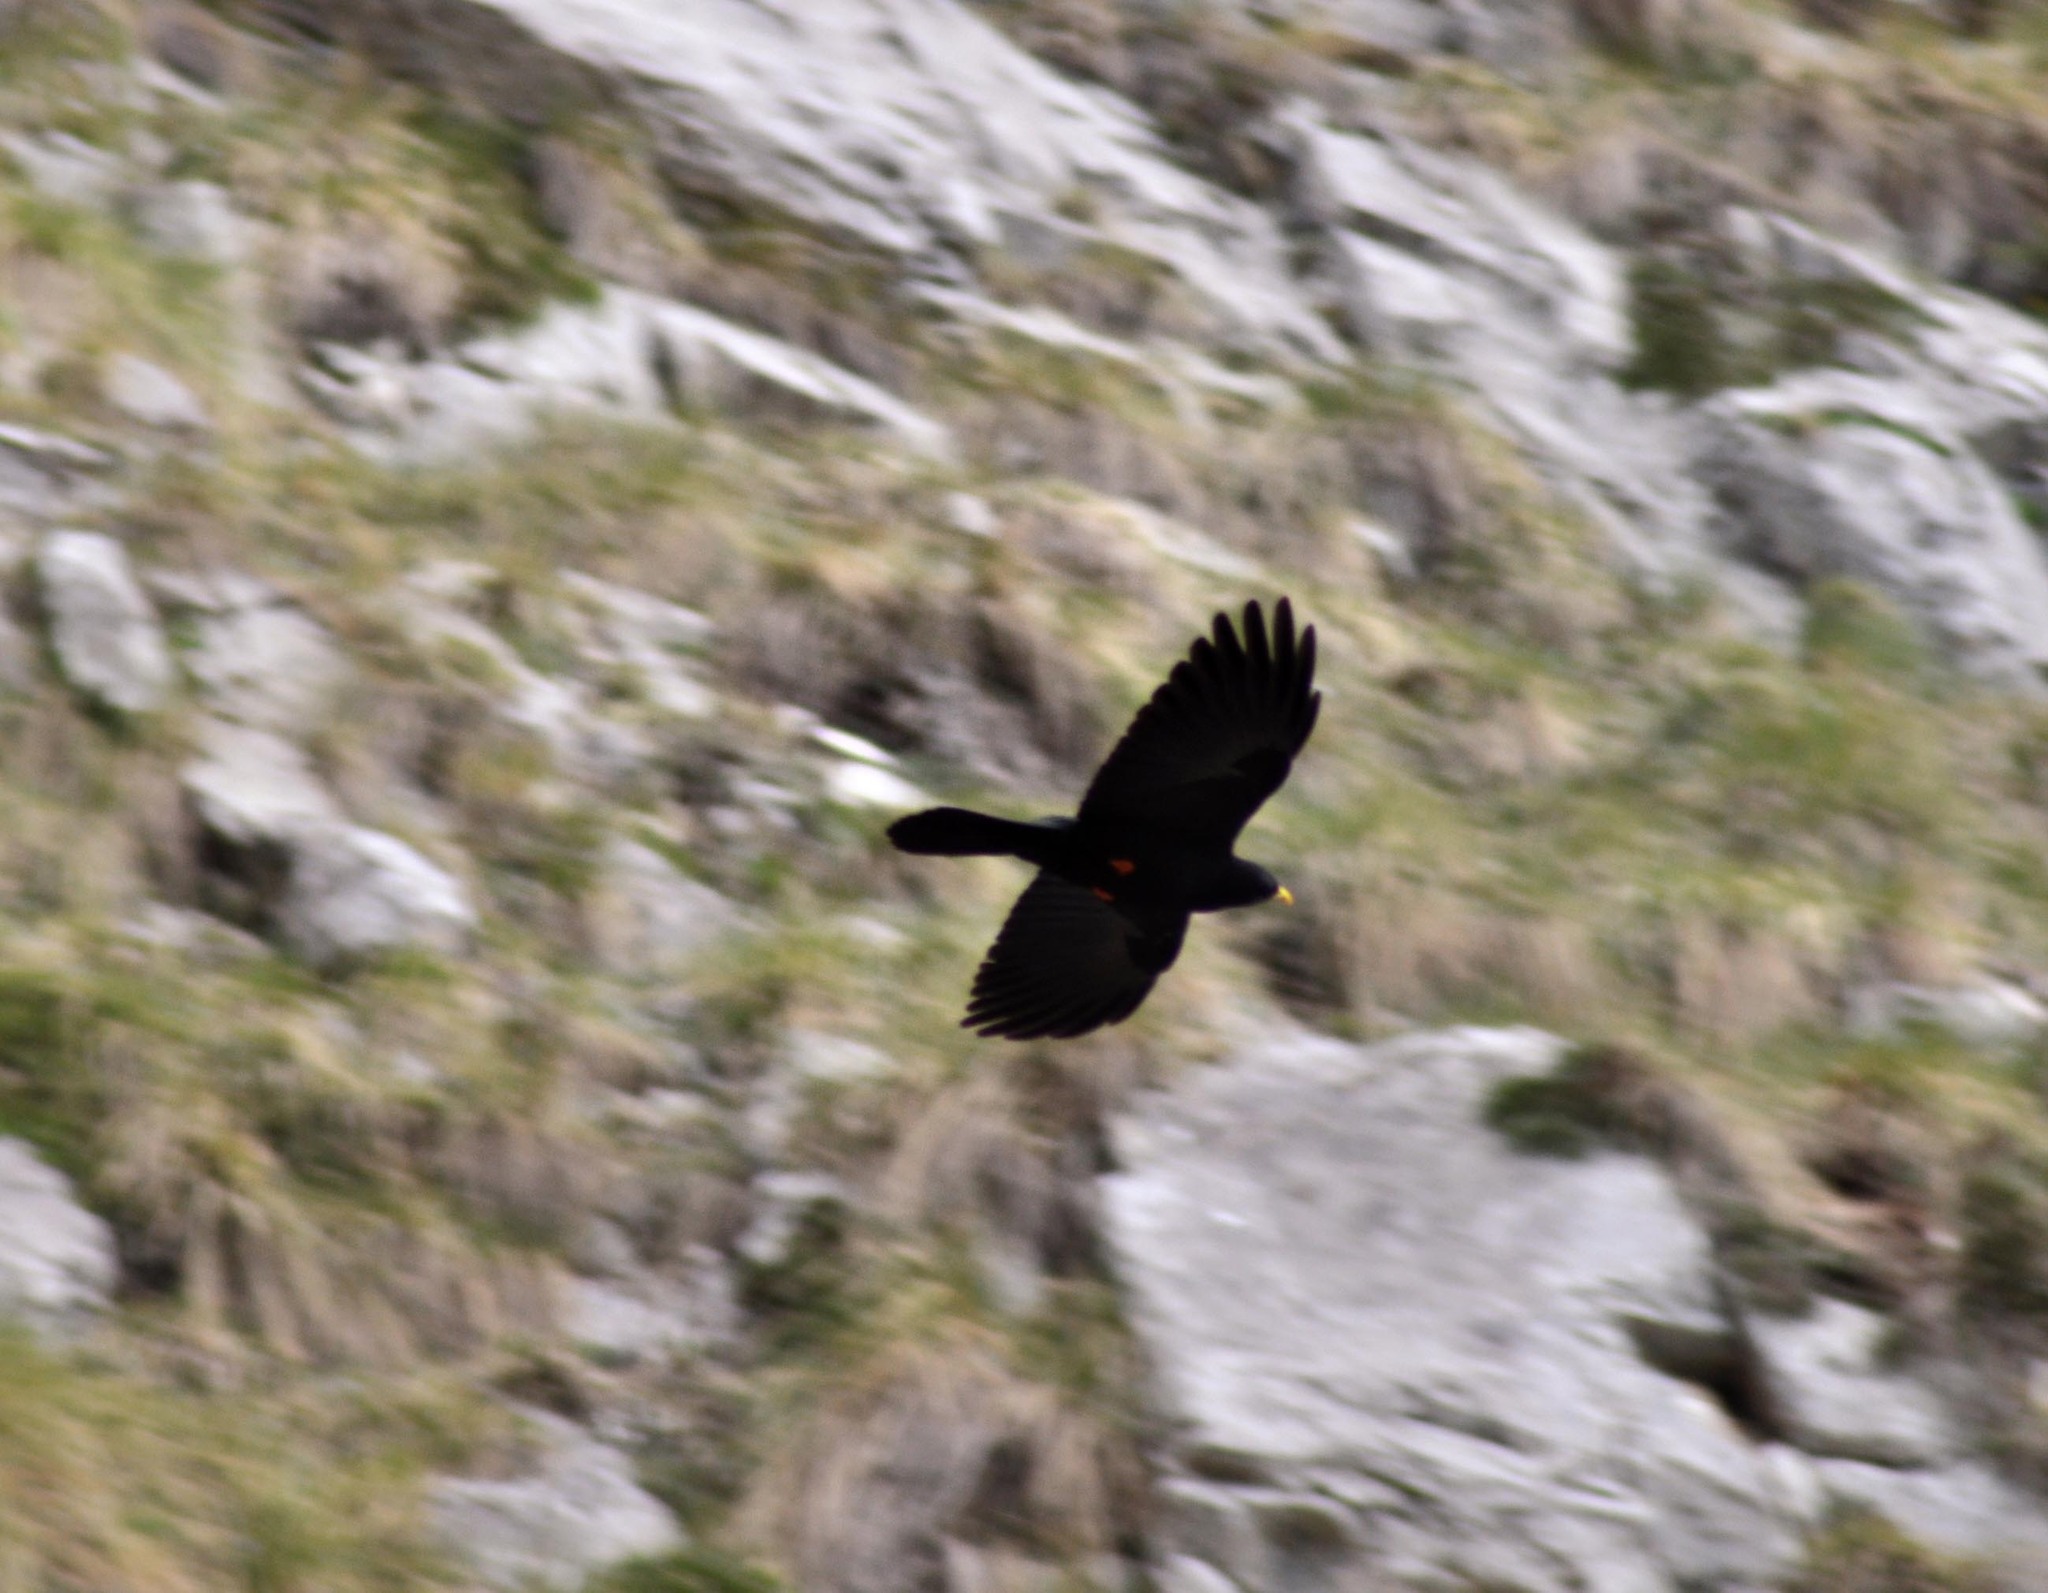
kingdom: Animalia
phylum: Chordata
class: Aves
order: Passeriformes
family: Corvidae
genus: Pyrrhocorax
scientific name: Pyrrhocorax graculus
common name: Alpine chough
